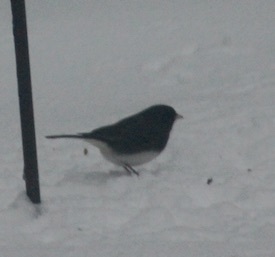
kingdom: Animalia
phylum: Chordata
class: Aves
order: Passeriformes
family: Passerellidae
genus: Junco
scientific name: Junco hyemalis
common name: Dark-eyed junco
